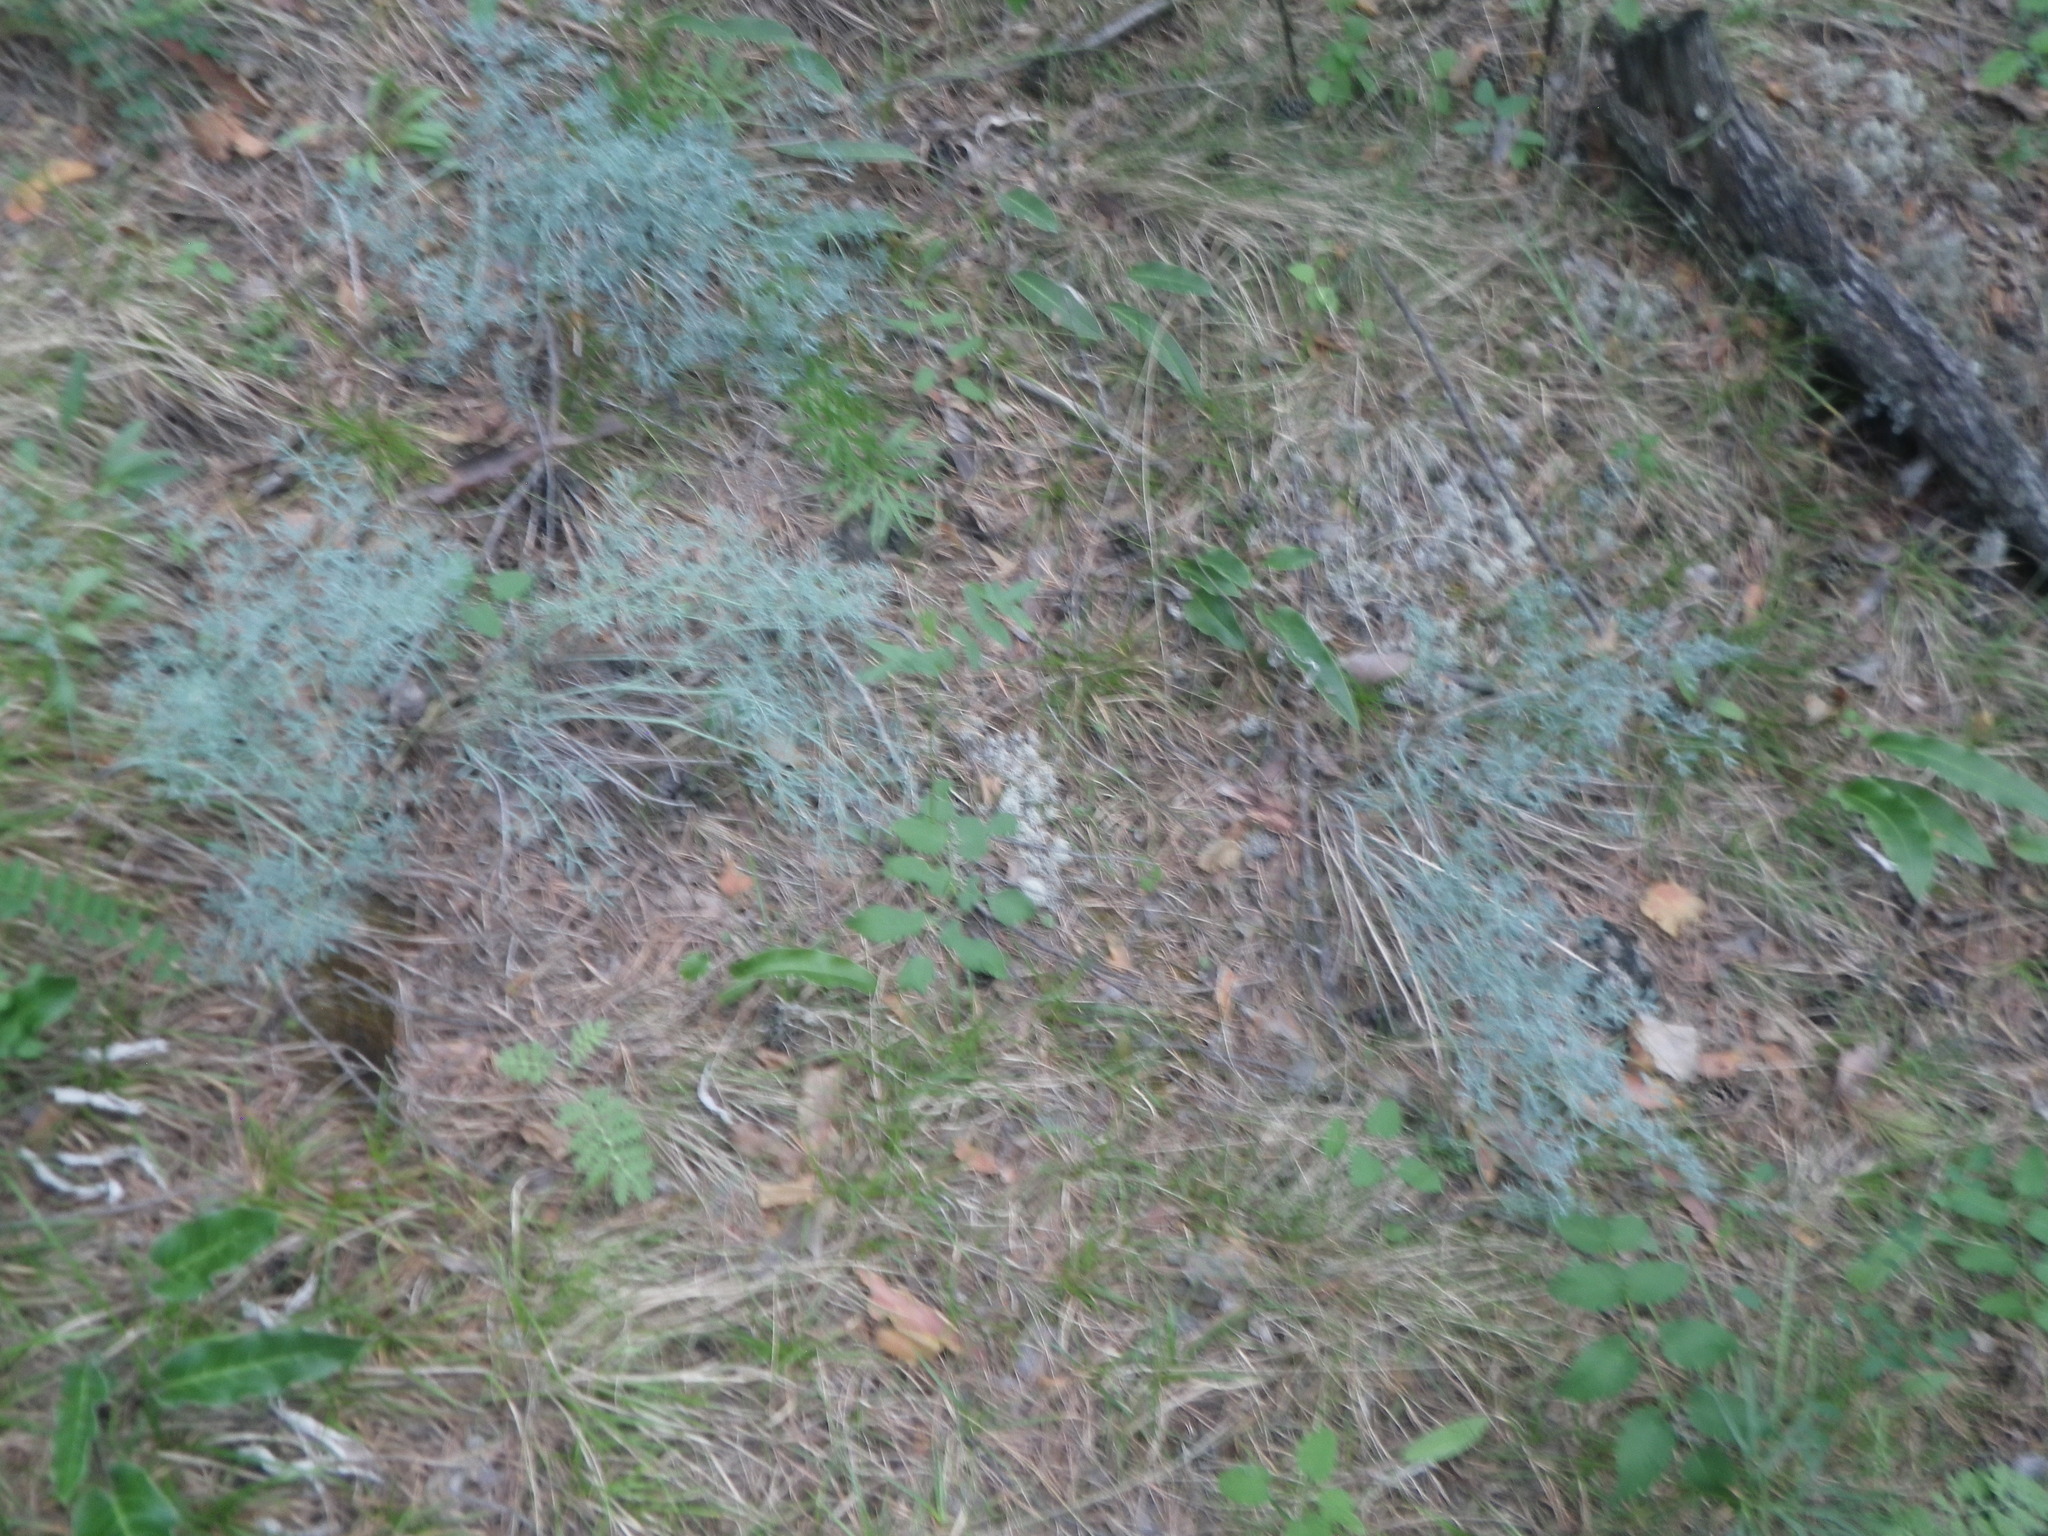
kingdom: Plantae
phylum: Tracheophyta
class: Magnoliopsida
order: Apiales
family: Apiaceae
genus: Phlojodicarpus
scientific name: Phlojodicarpus sibiricus
